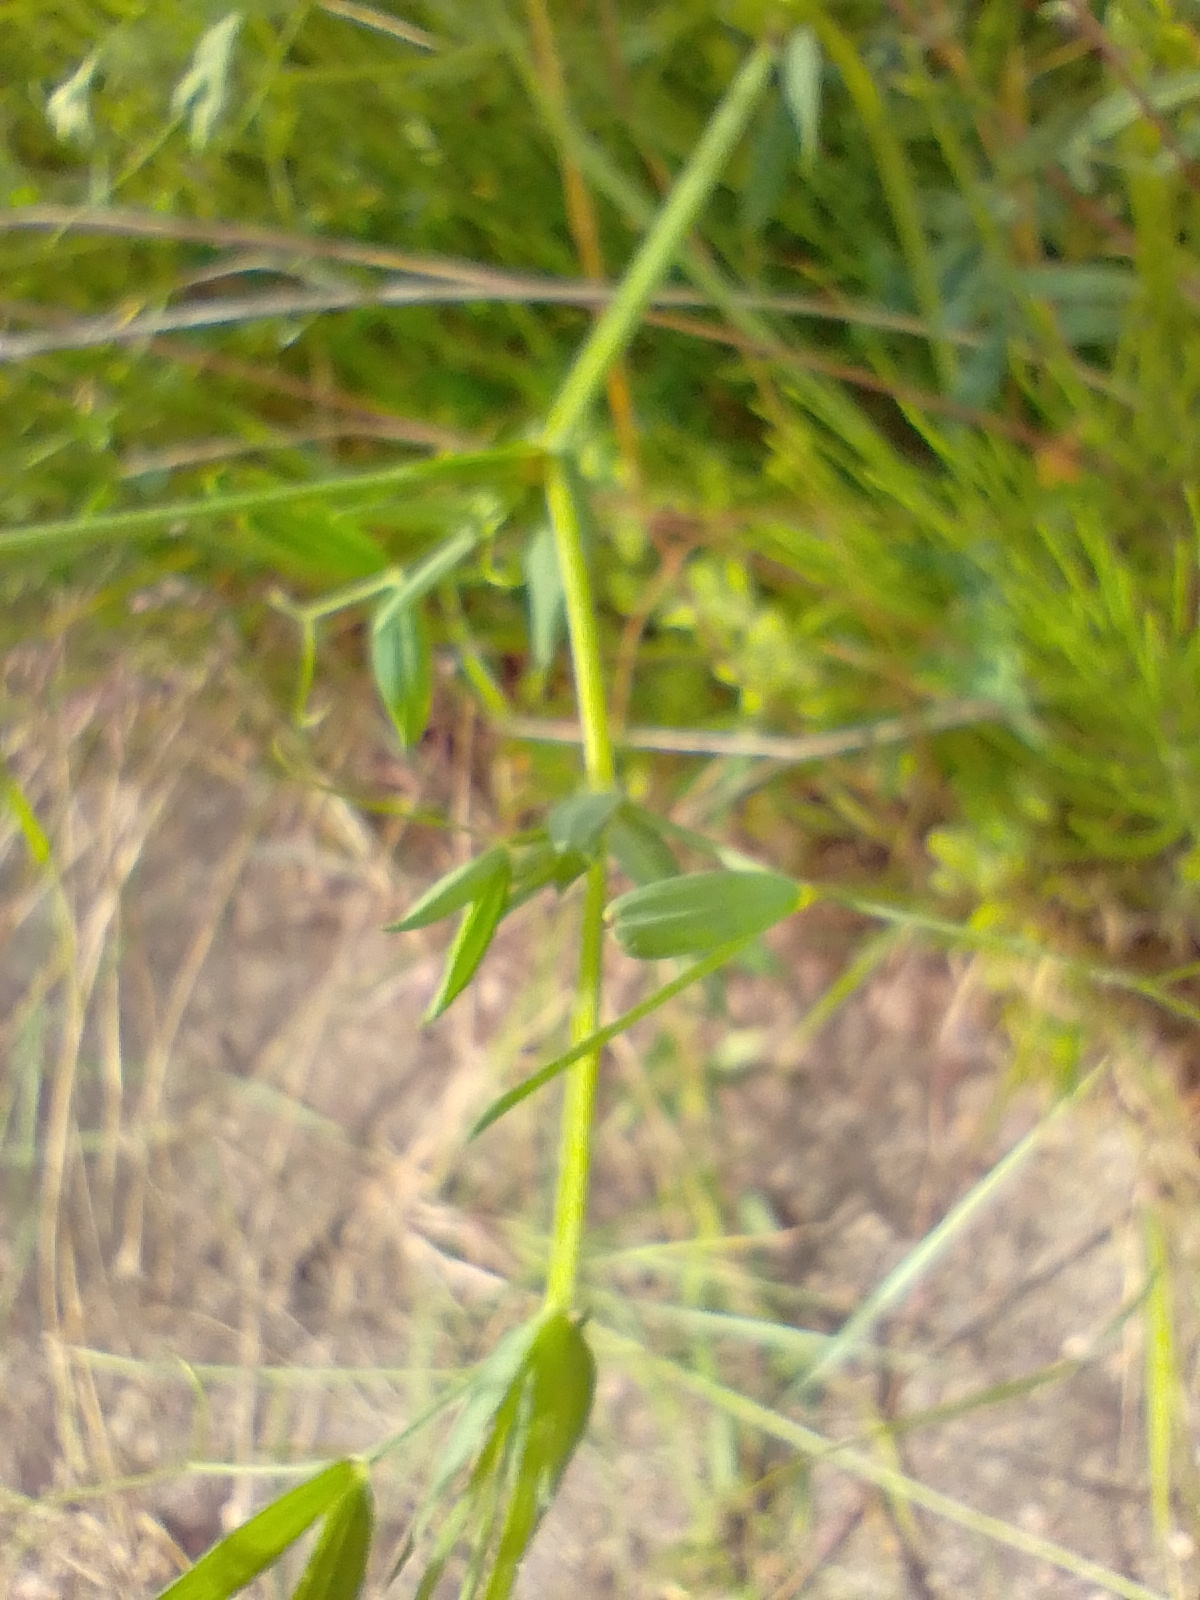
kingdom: Plantae
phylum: Tracheophyta
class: Magnoliopsida
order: Fabales
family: Fabaceae
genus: Lathyrus
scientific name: Lathyrus pratensis
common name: Meadow vetchling
